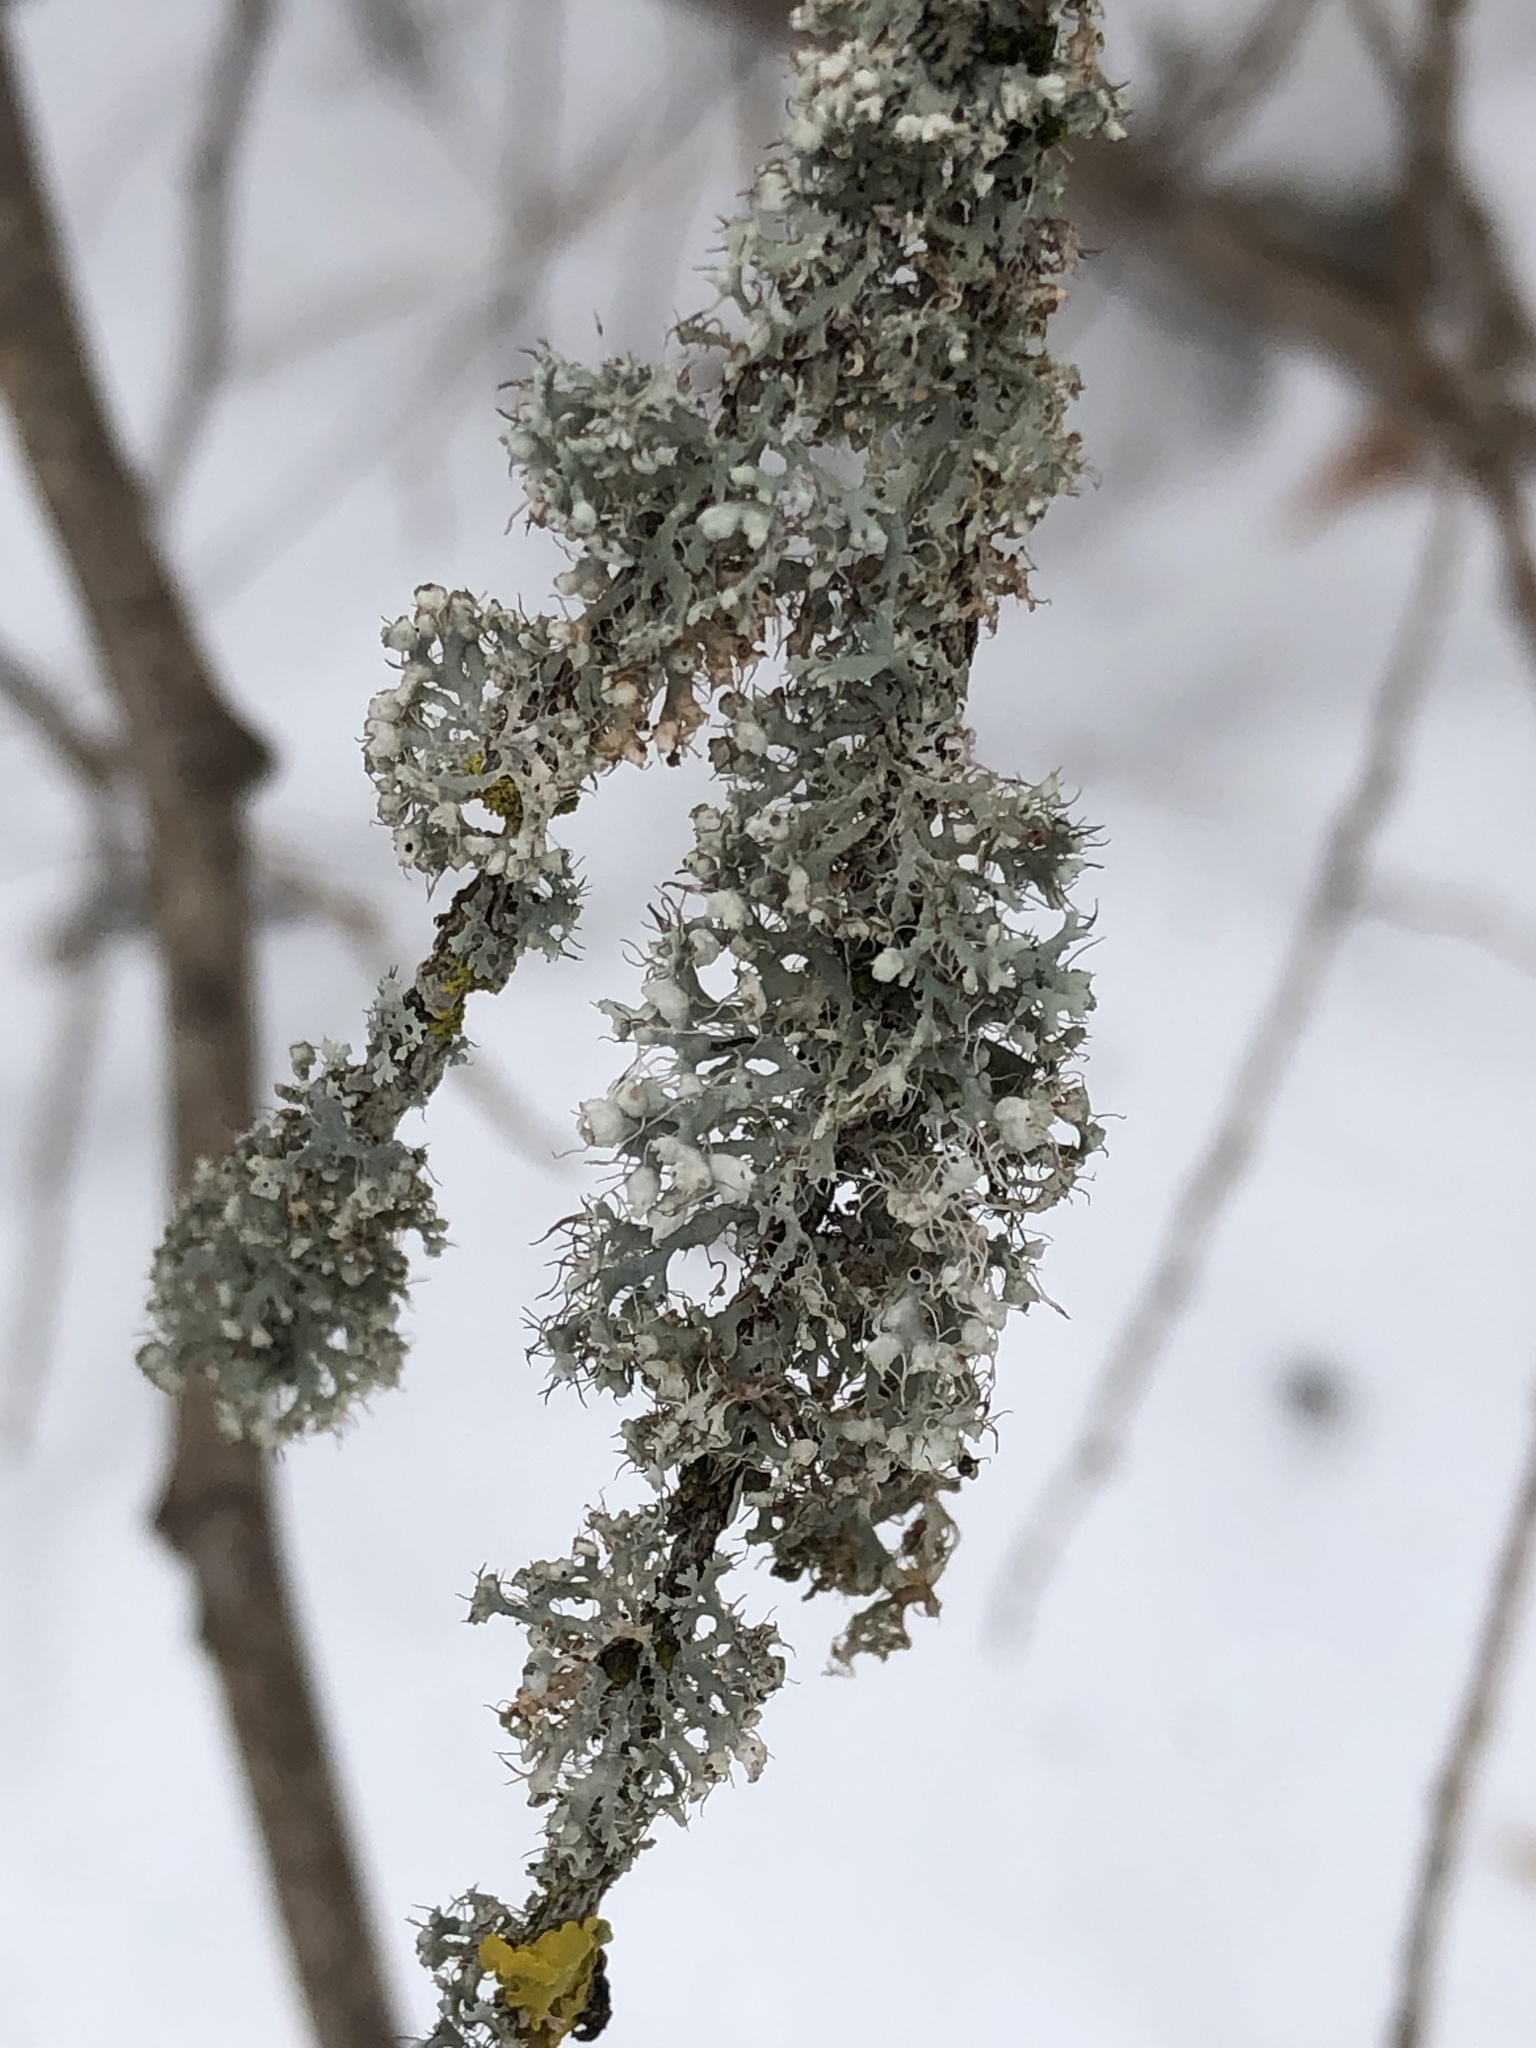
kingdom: Fungi
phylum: Ascomycota
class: Lecanoromycetes
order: Caliciales
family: Physciaceae
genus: Physcia
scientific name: Physcia adscendens
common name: Hooded rosette lichen
